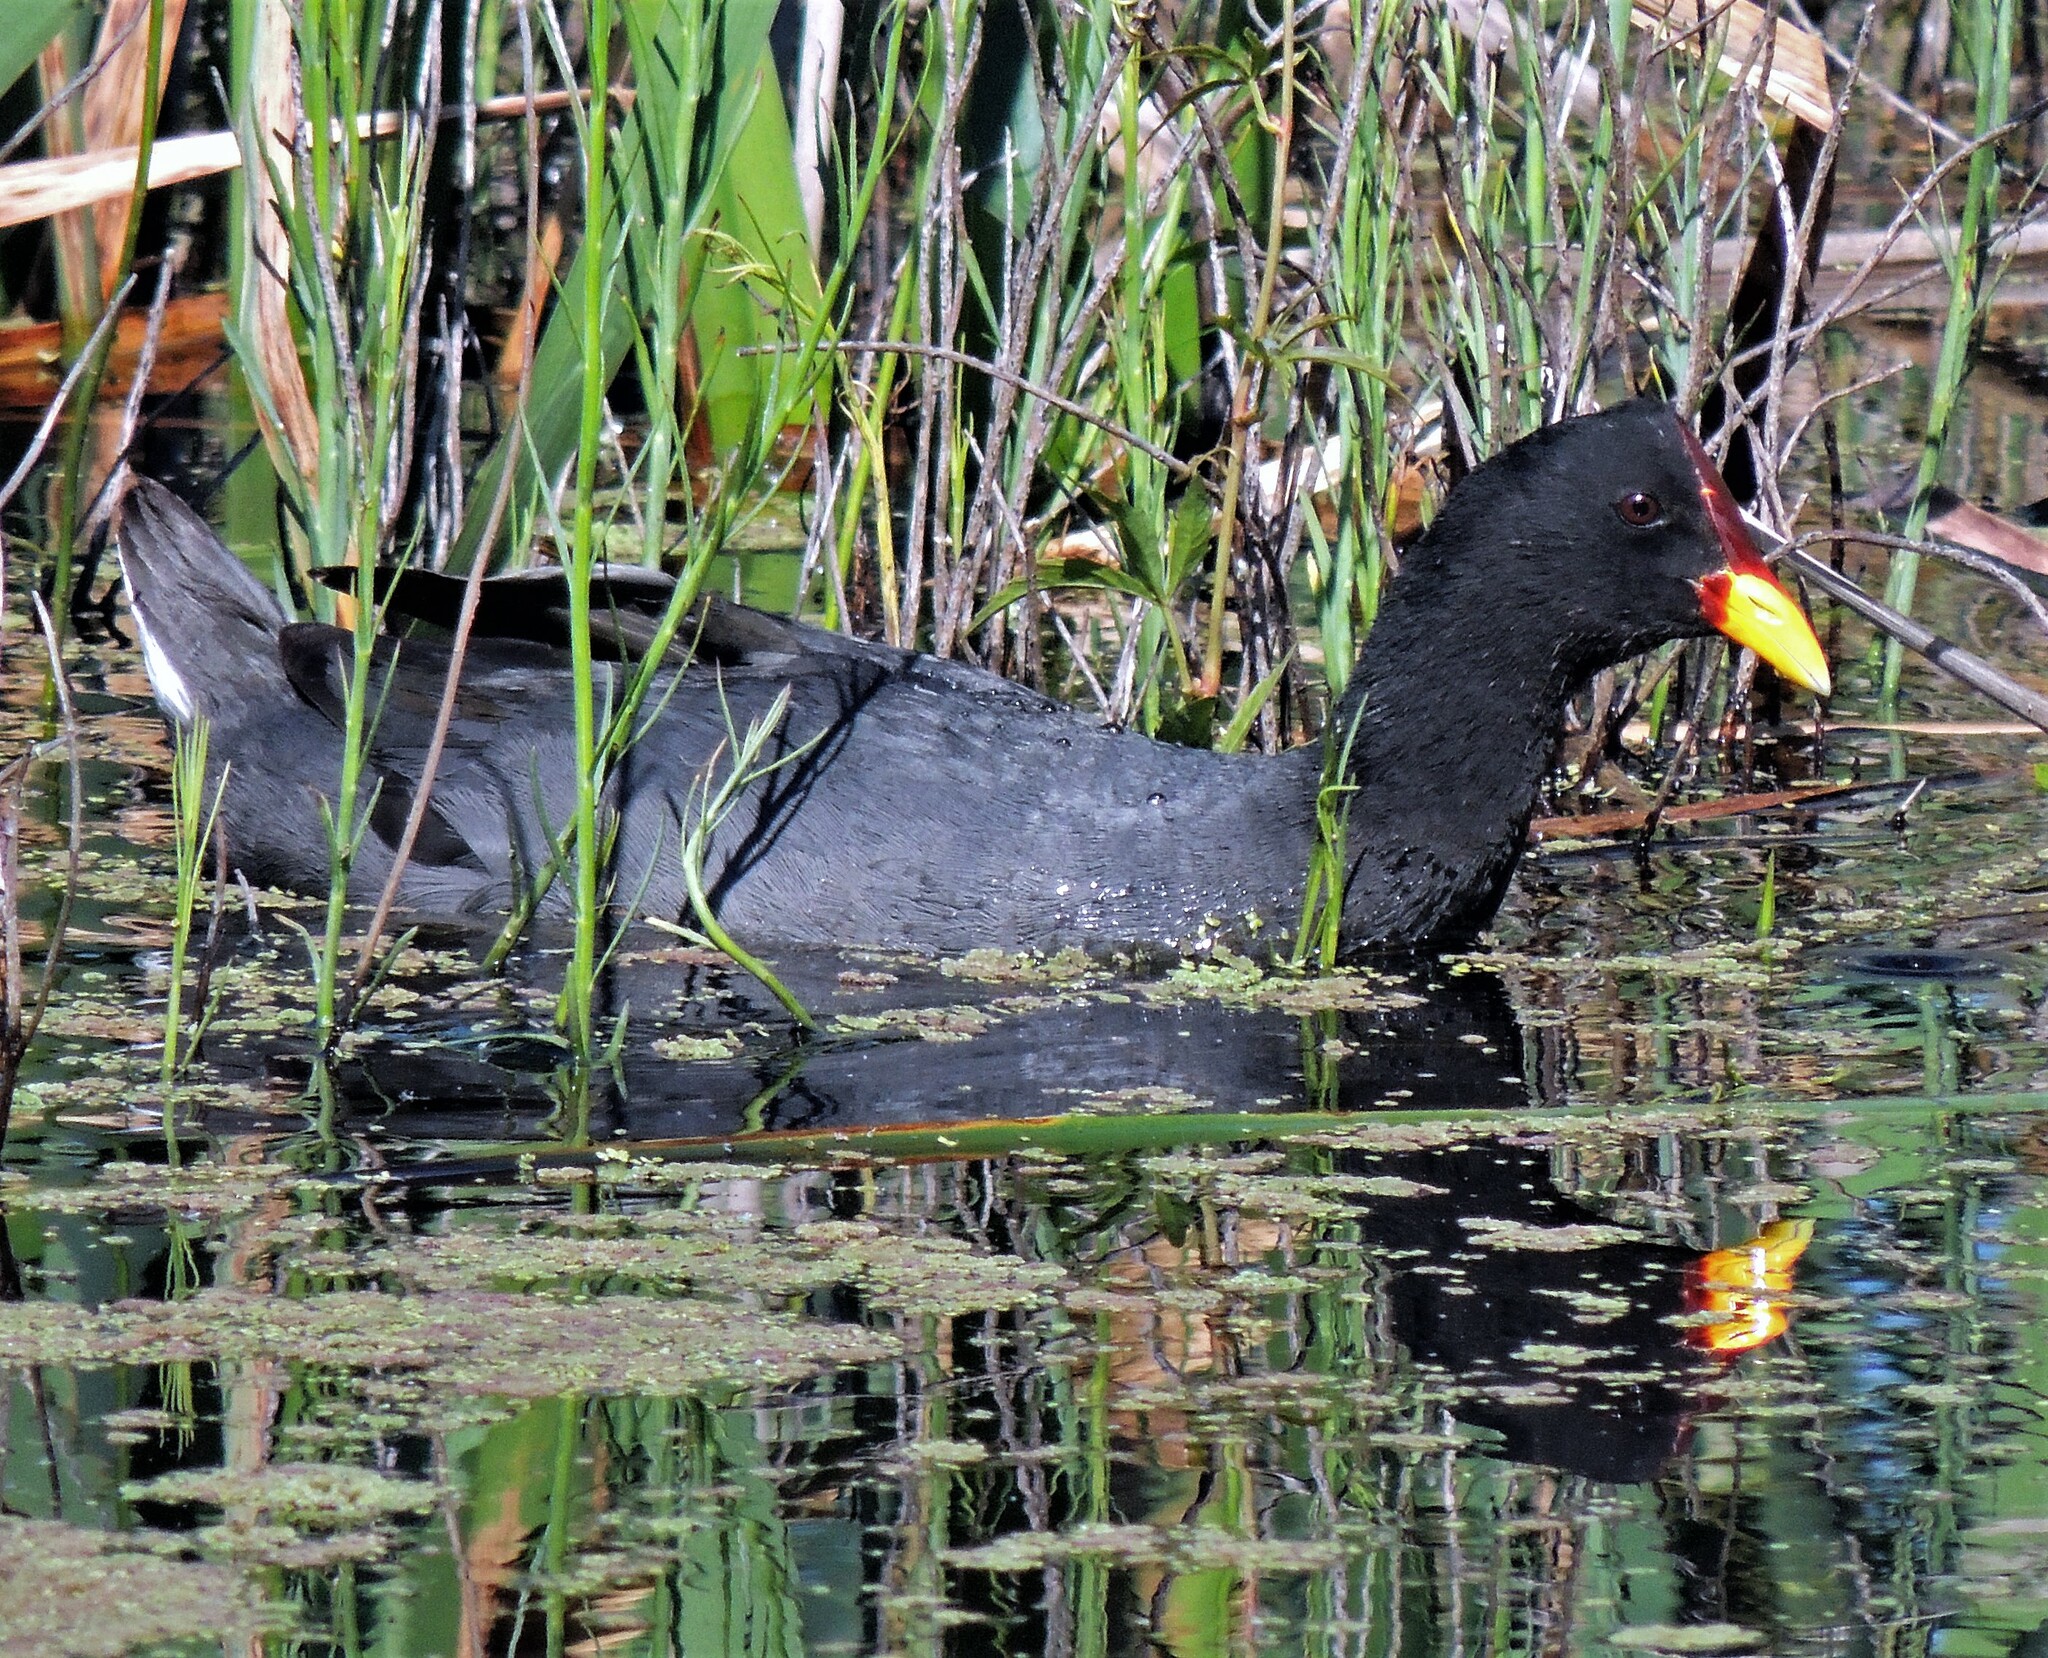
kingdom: Animalia
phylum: Chordata
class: Aves
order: Gruiformes
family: Rallidae
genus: Fulica
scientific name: Fulica rufifrons
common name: Red-fronted coot
